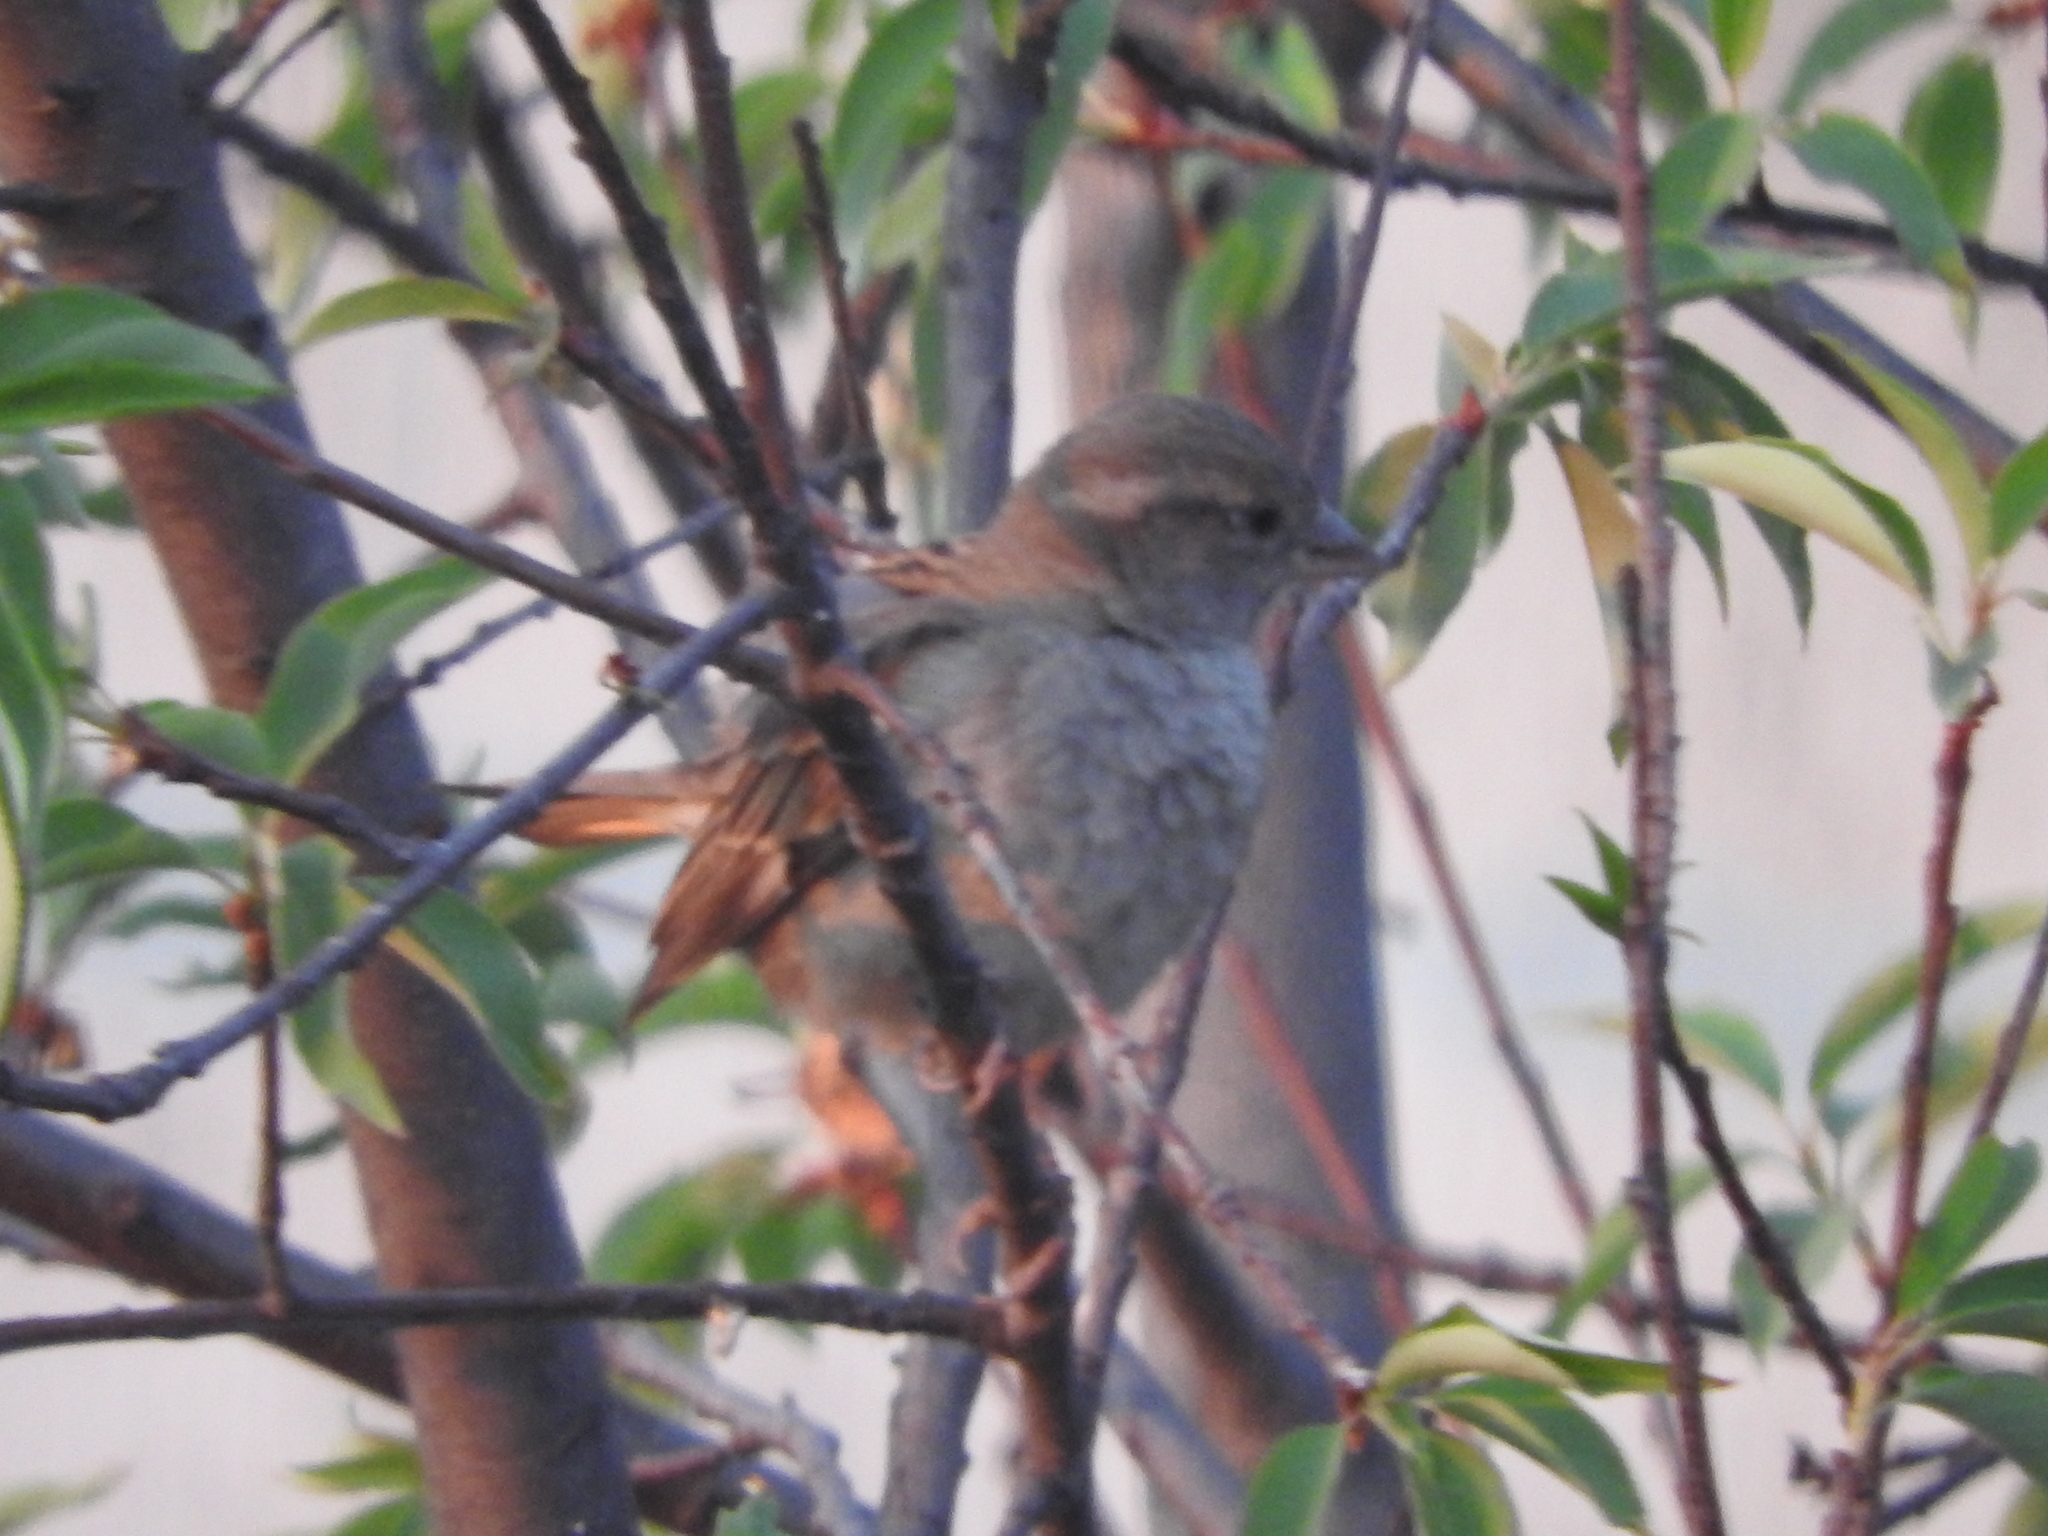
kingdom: Animalia
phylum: Chordata
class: Aves
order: Passeriformes
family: Passeridae
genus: Passer
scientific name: Passer domesticus
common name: House sparrow
